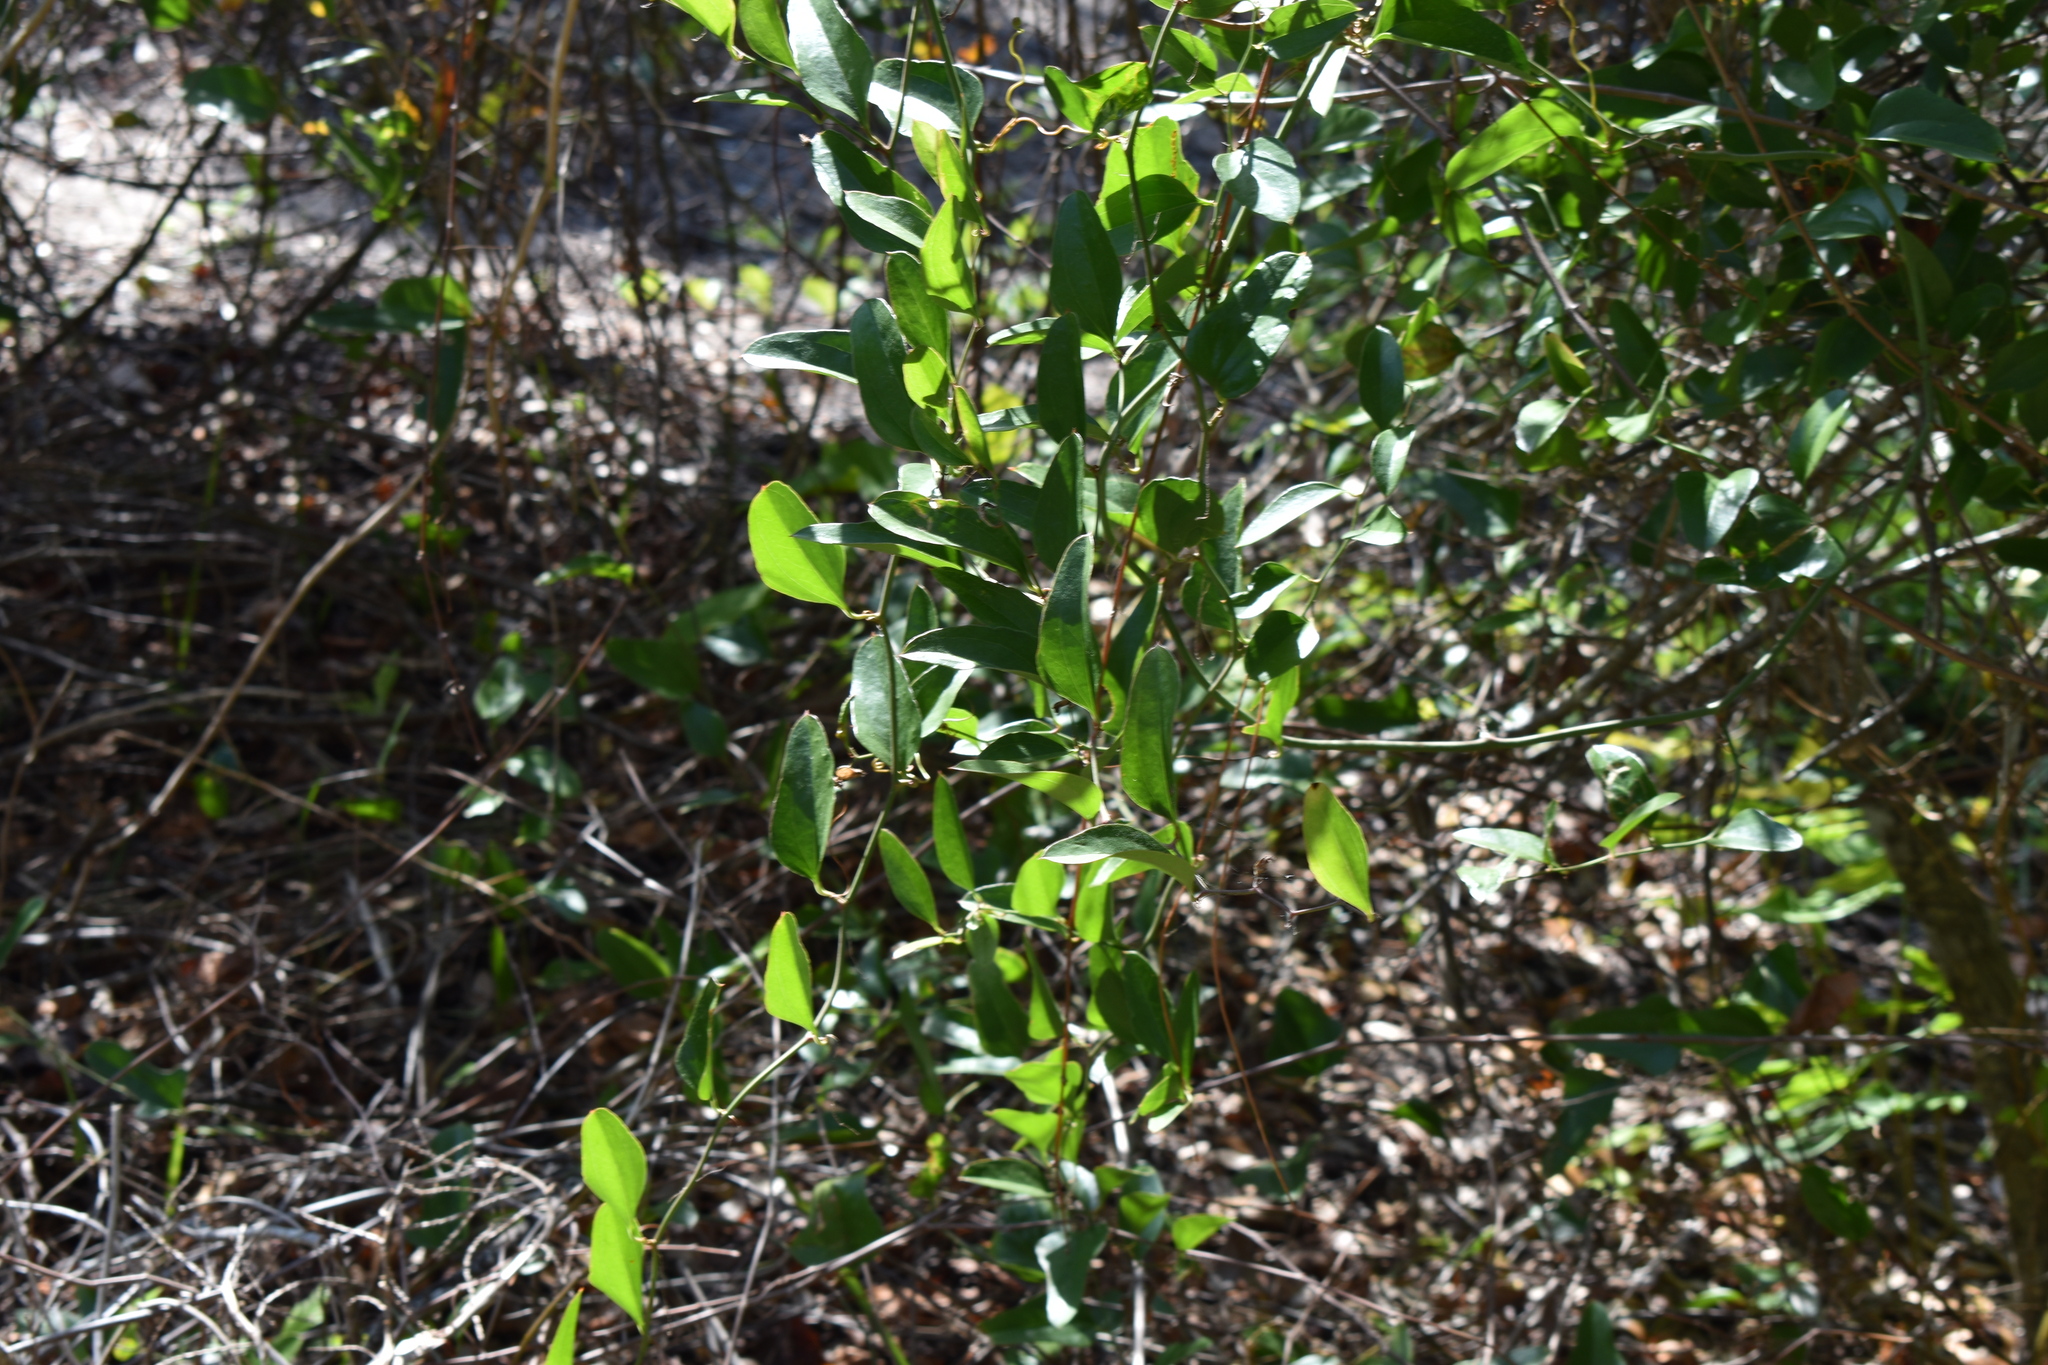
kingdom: Plantae
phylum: Tracheophyta
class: Liliopsida
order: Liliales
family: Smilacaceae
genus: Smilax
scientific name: Smilax auriculata
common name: Wild bamboo
